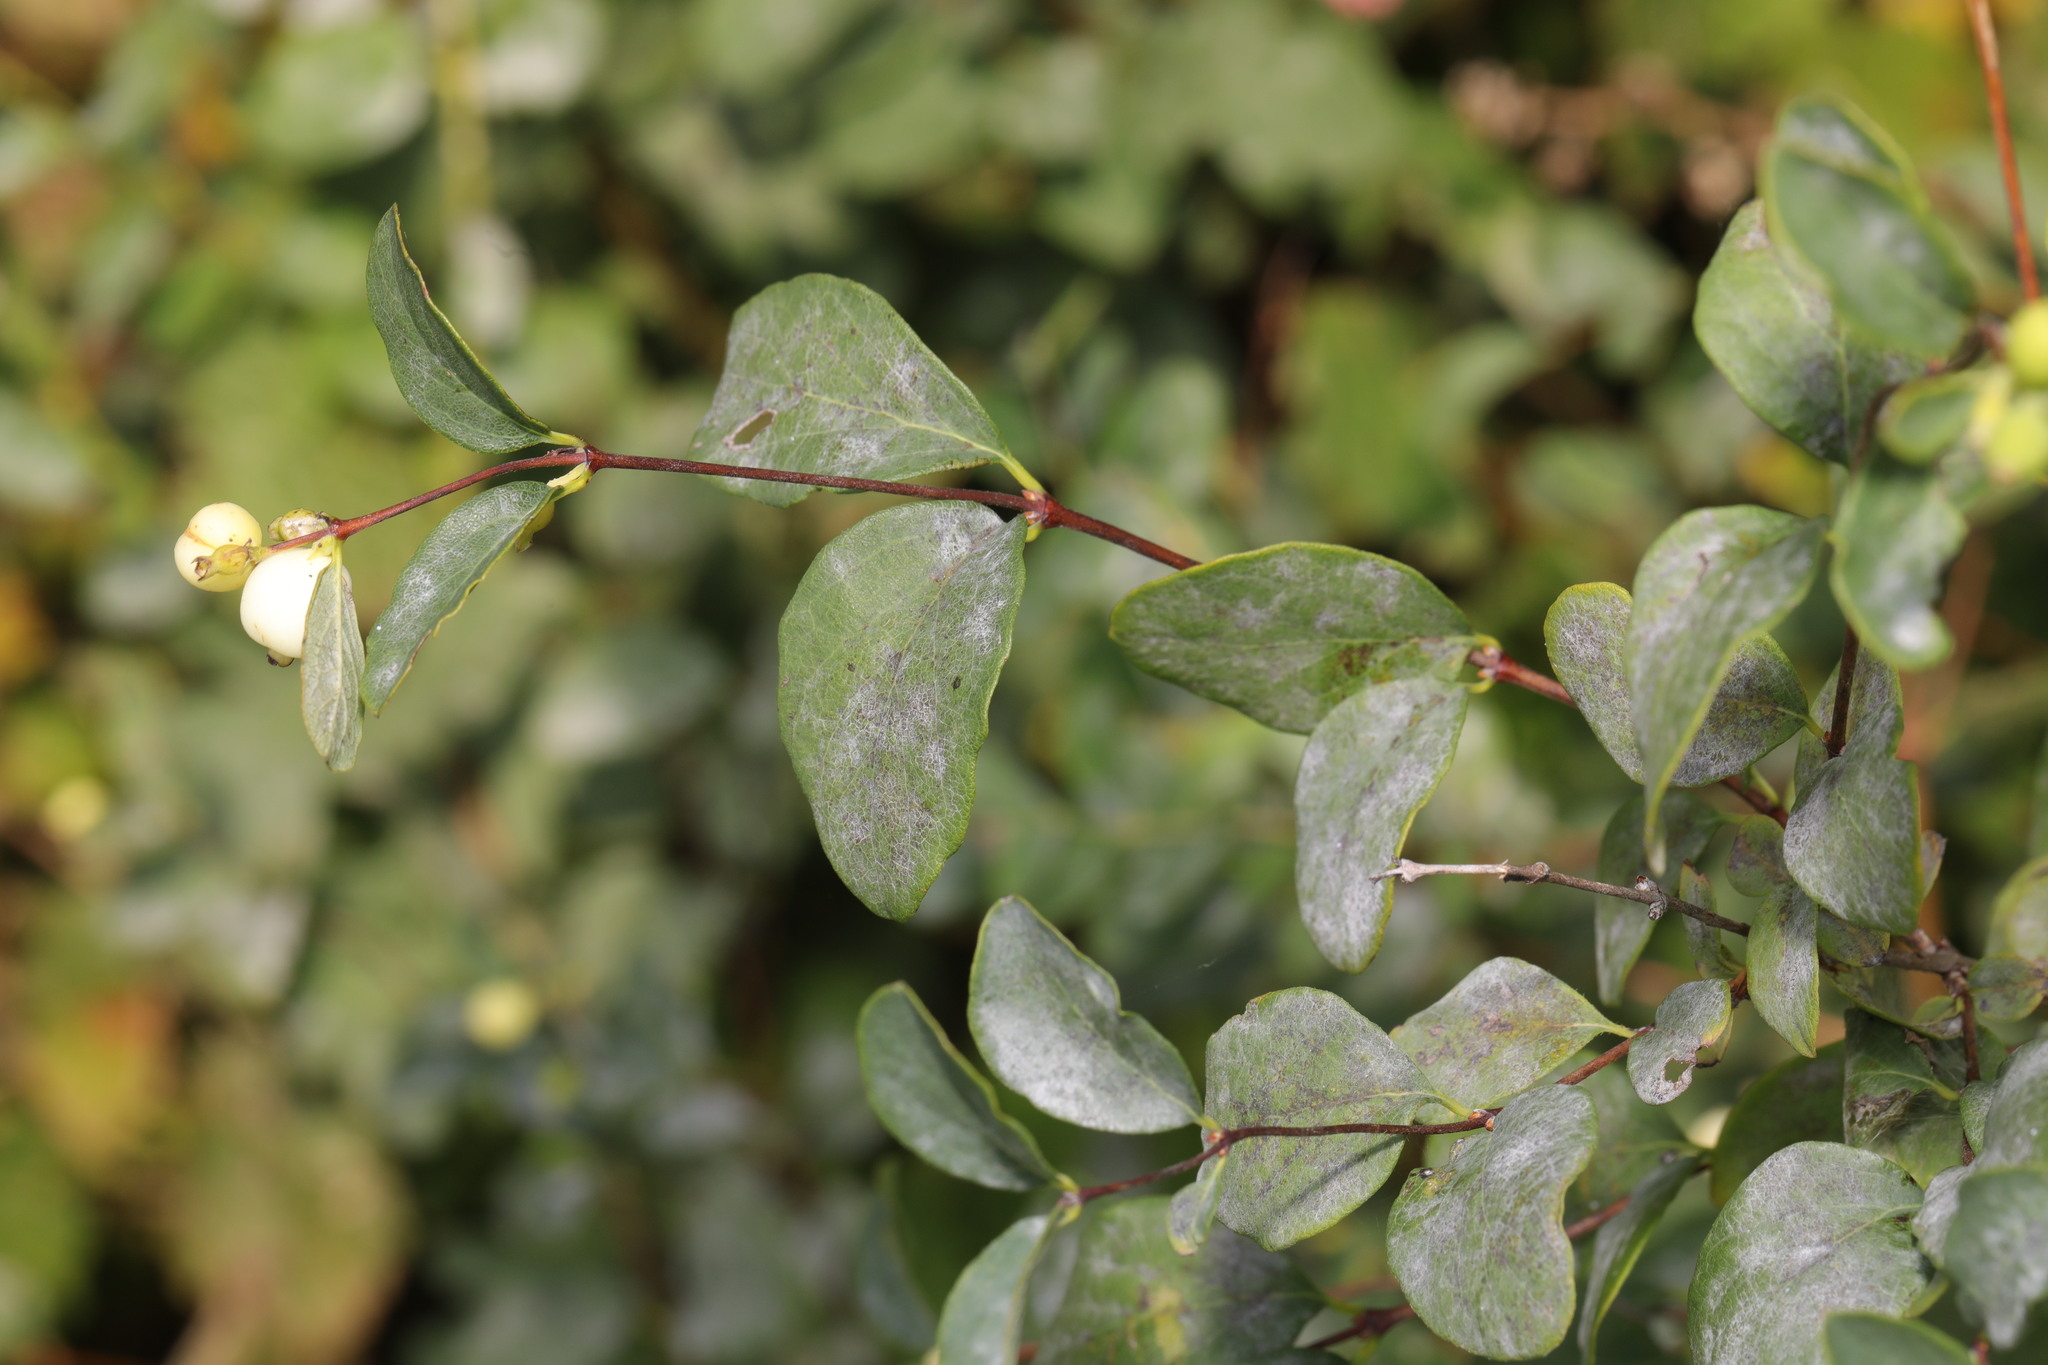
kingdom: Plantae
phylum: Tracheophyta
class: Magnoliopsida
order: Dipsacales
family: Caprifoliaceae
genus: Symphoricarpos
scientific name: Symphoricarpos albus
